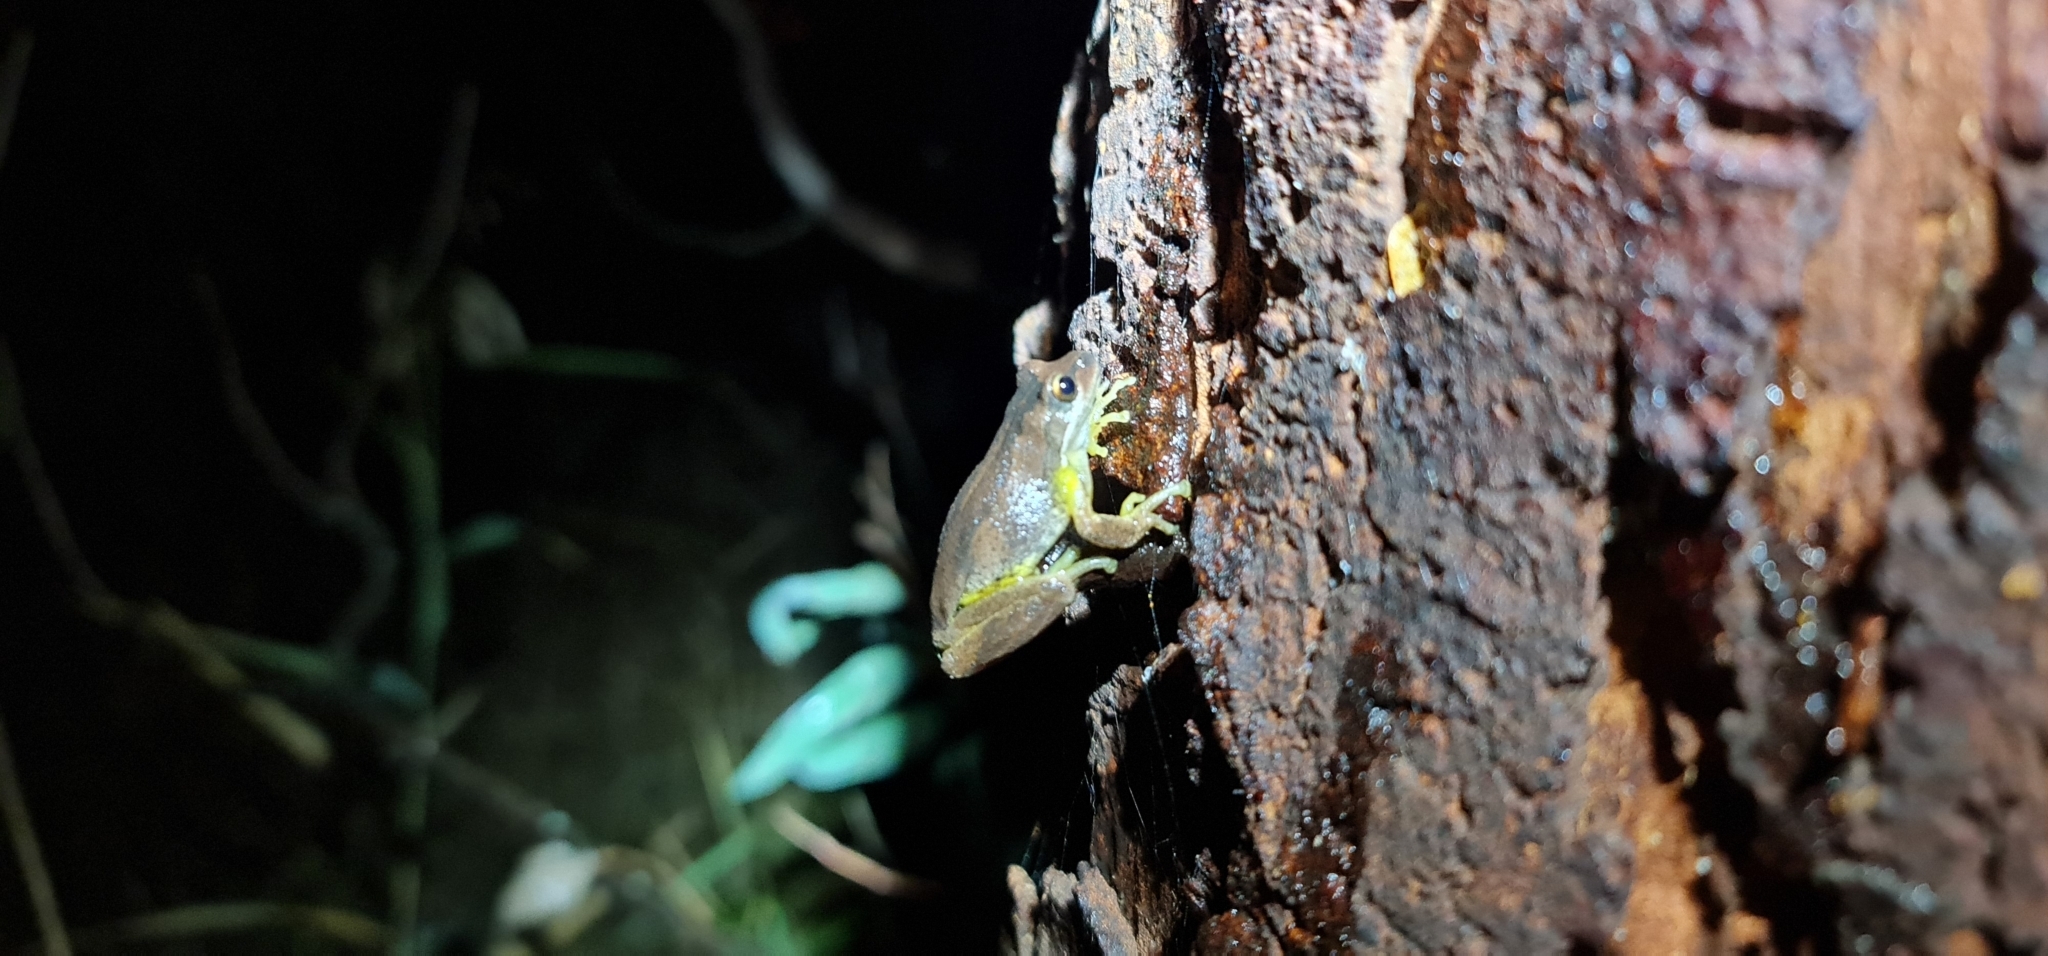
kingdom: Animalia
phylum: Chordata
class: Amphibia
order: Anura
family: Pelodryadidae
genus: Litoria
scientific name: Litoria
